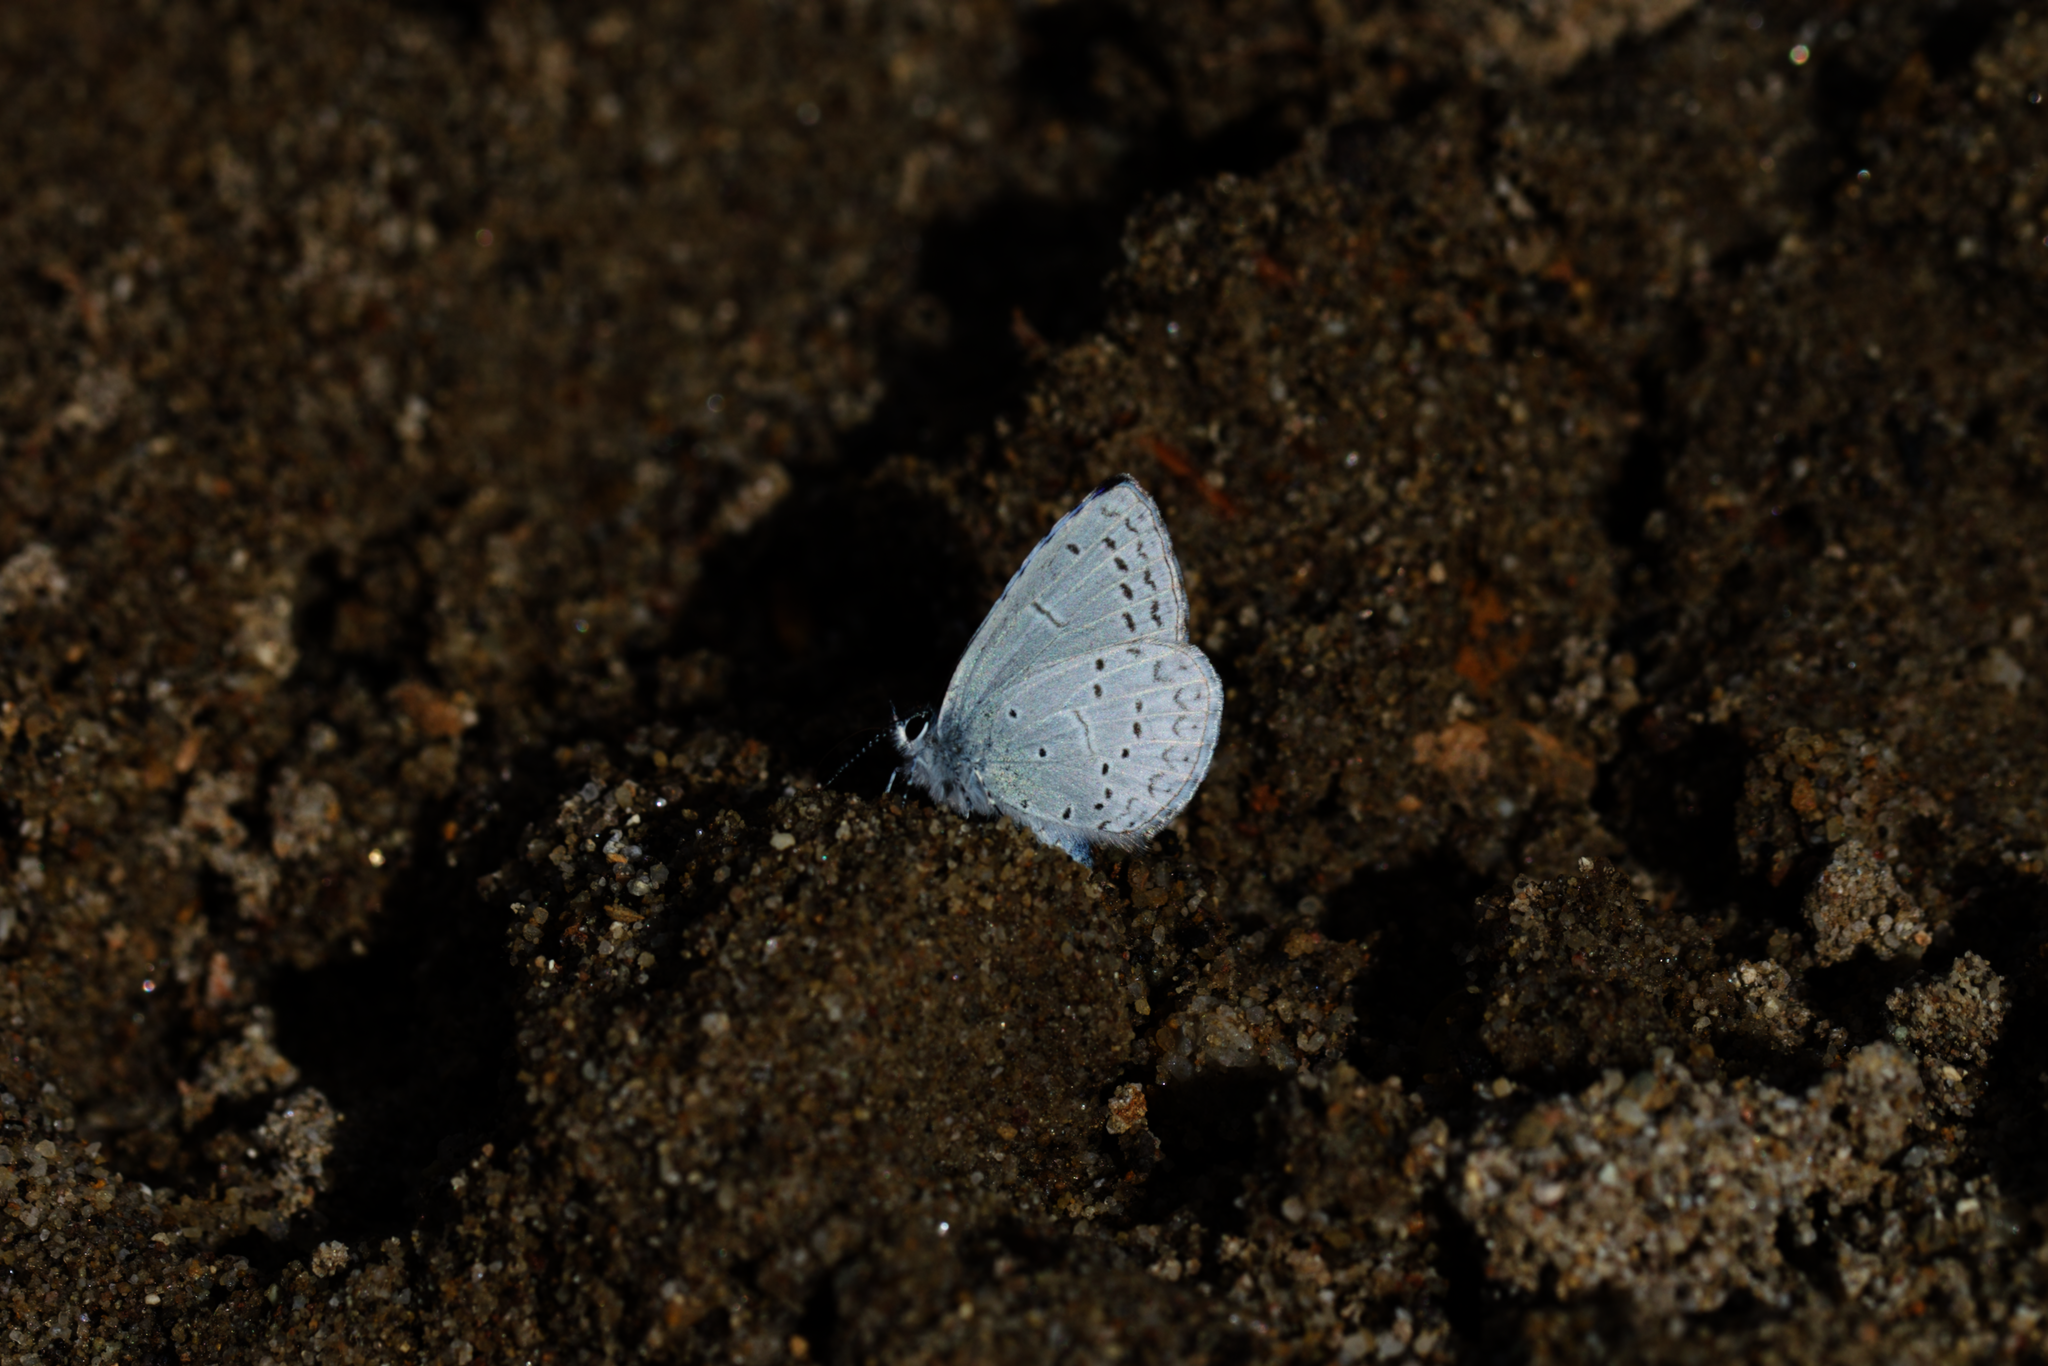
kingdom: Animalia
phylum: Arthropoda
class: Insecta
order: Lepidoptera
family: Lycaenidae
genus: Celastrina
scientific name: Celastrina ladon
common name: Spring azure
